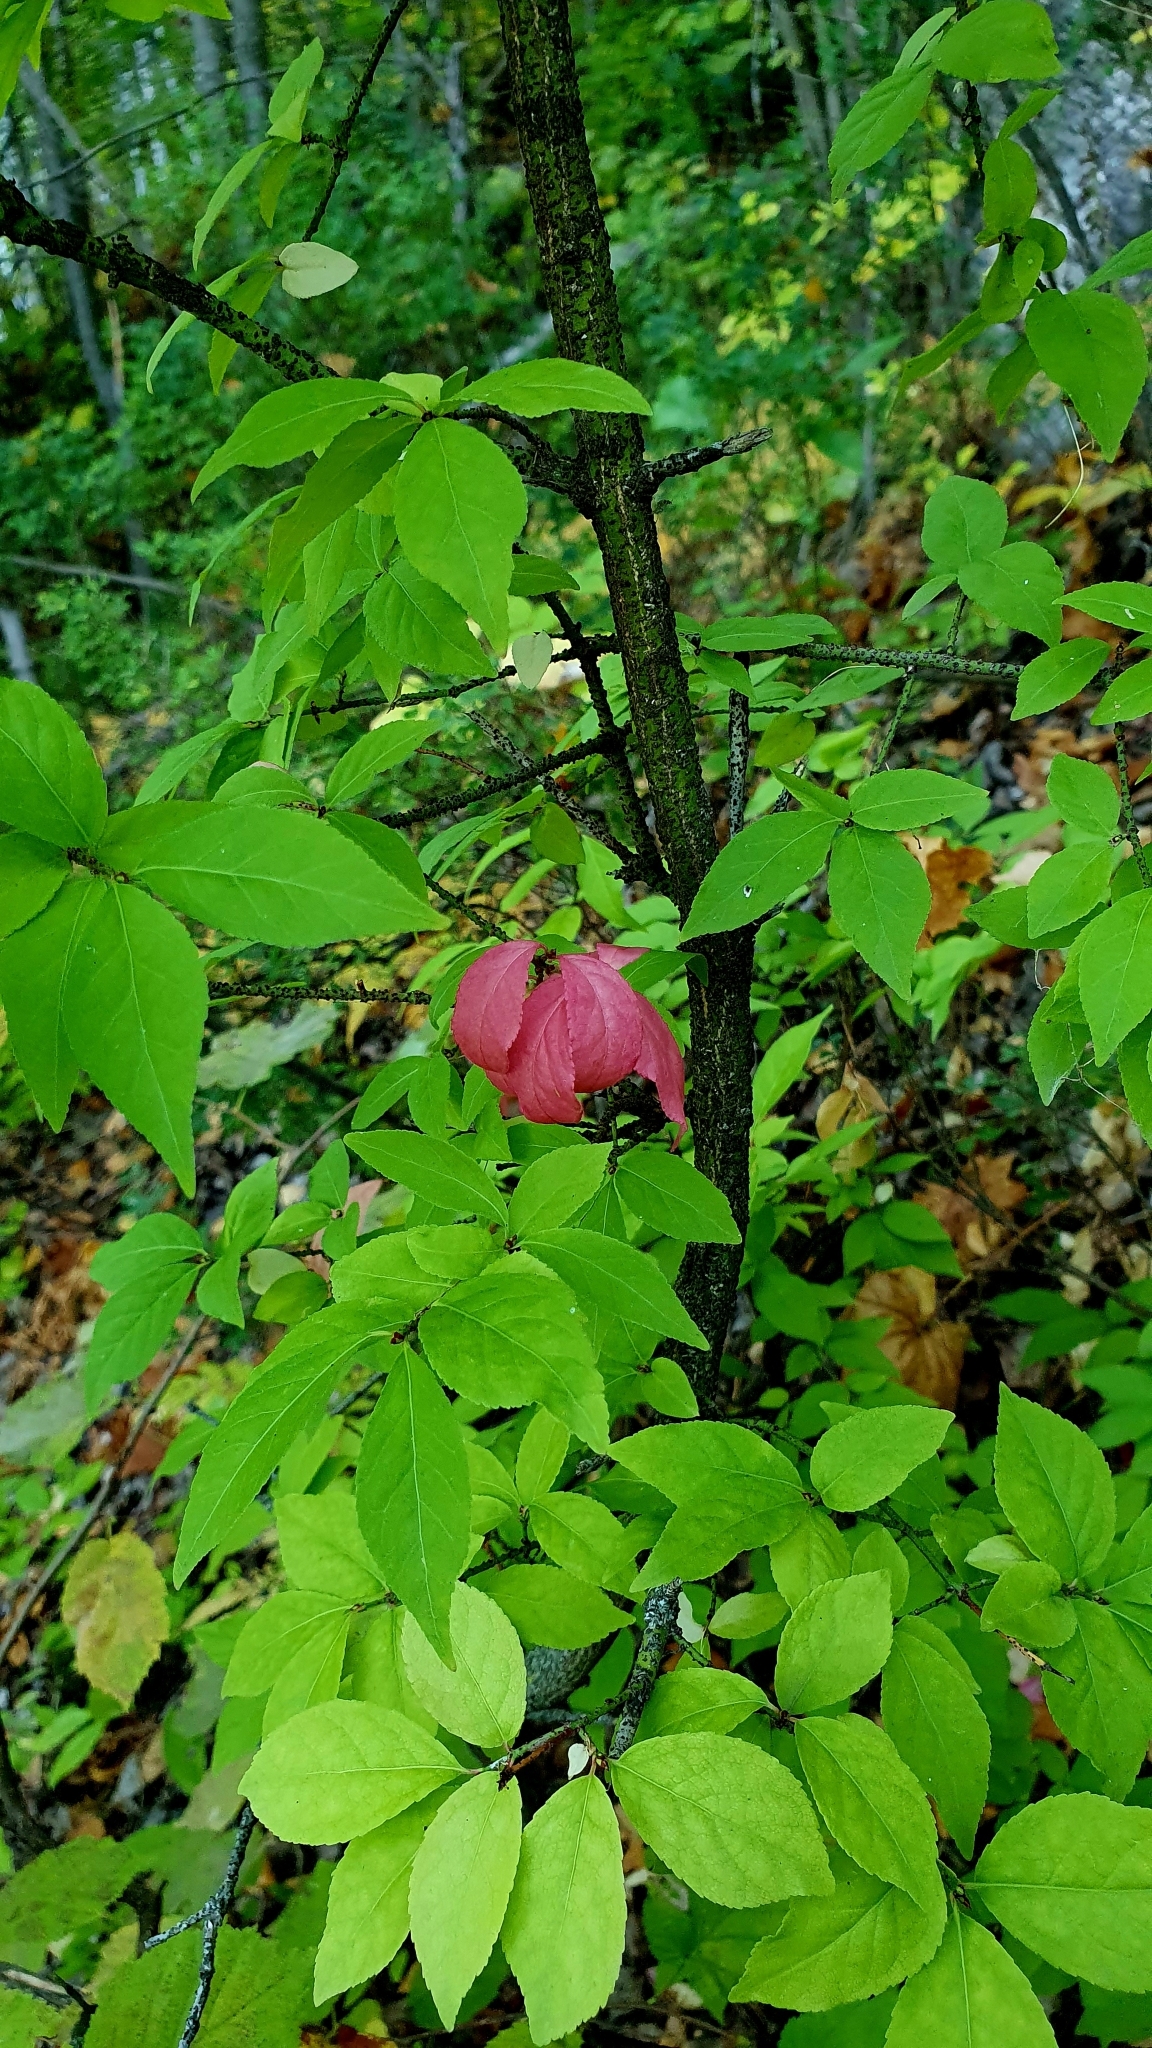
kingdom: Plantae
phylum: Tracheophyta
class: Magnoliopsida
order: Celastrales
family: Celastraceae
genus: Euonymus
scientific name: Euonymus verrucosus
